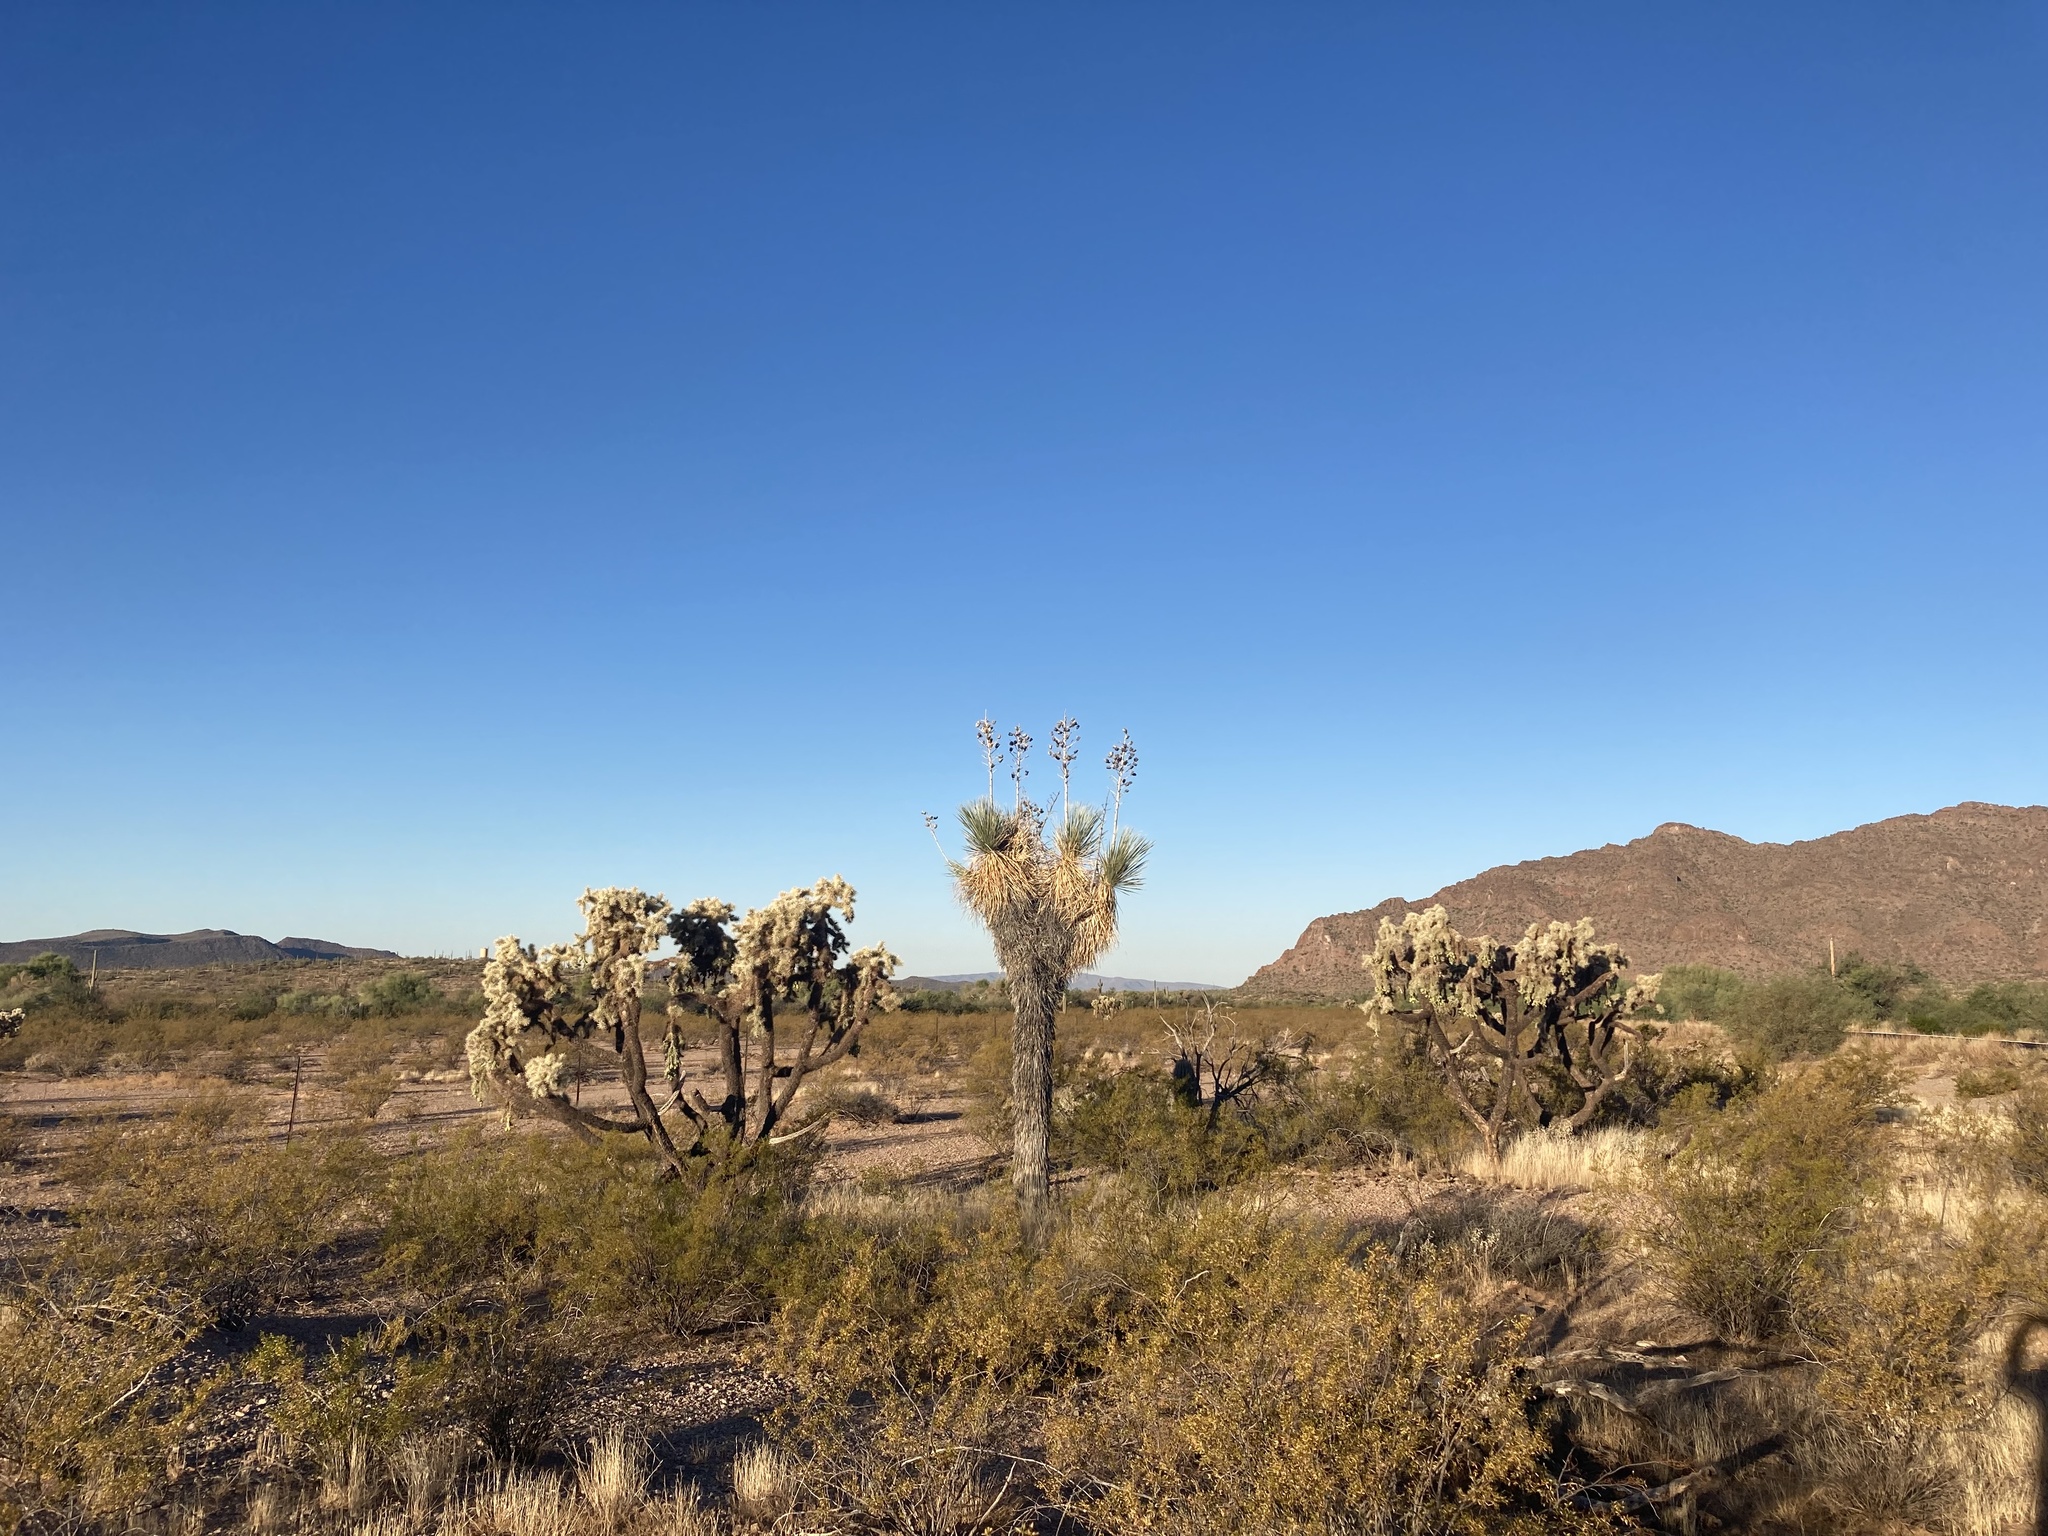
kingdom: Plantae
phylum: Tracheophyta
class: Liliopsida
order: Asparagales
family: Asparagaceae
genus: Yucca
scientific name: Yucca elata
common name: Palmella
